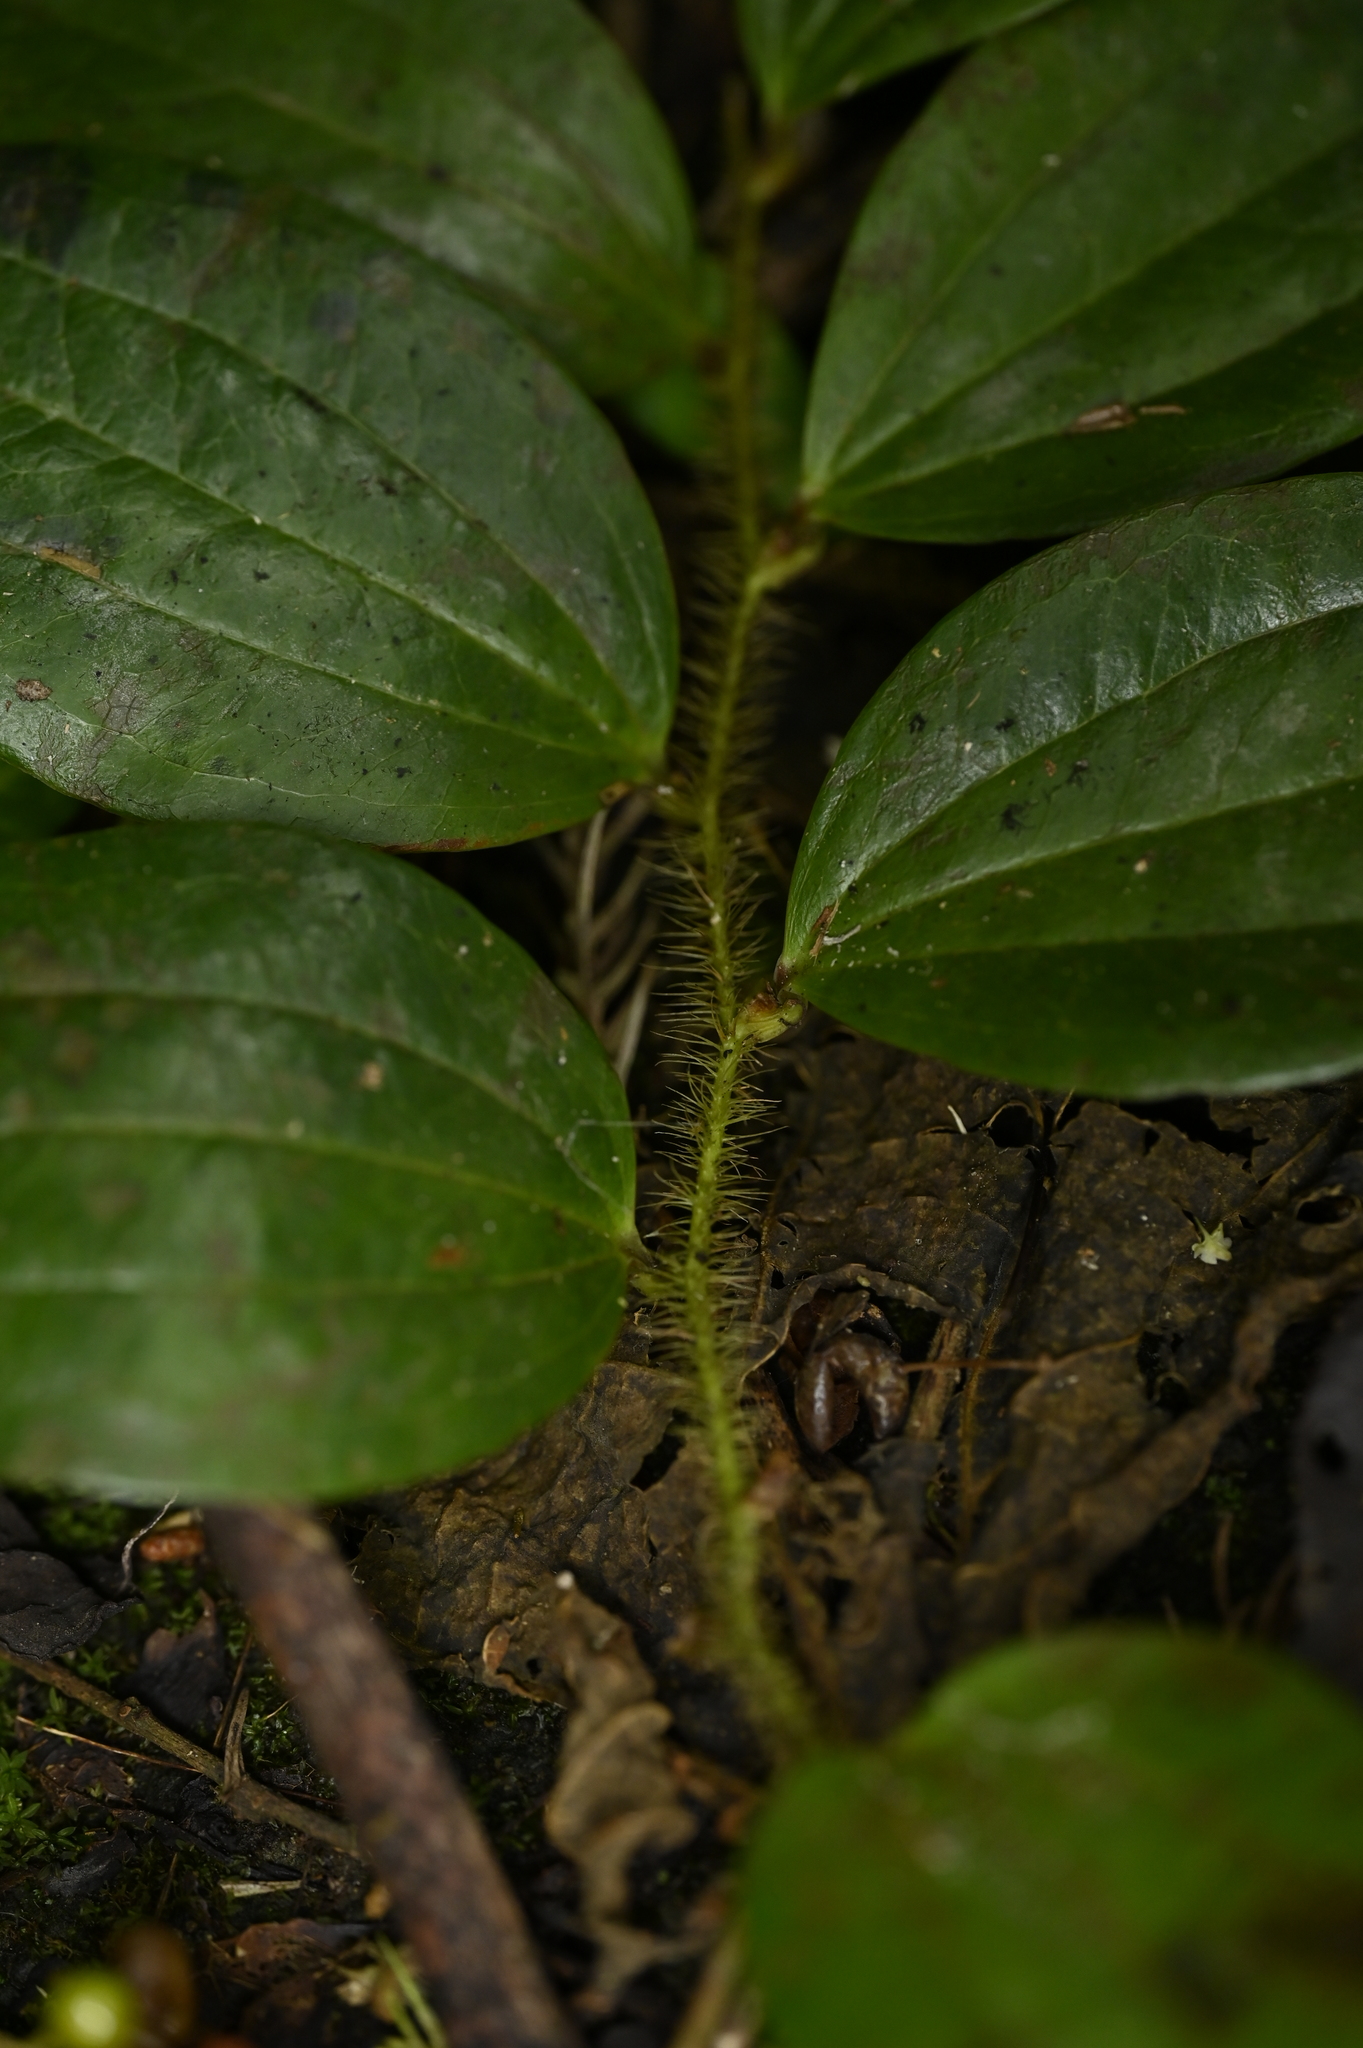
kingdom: Plantae
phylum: Tracheophyta
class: Liliopsida
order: Liliales
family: Smilacaceae
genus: Smilax
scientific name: Smilax horridiramula
